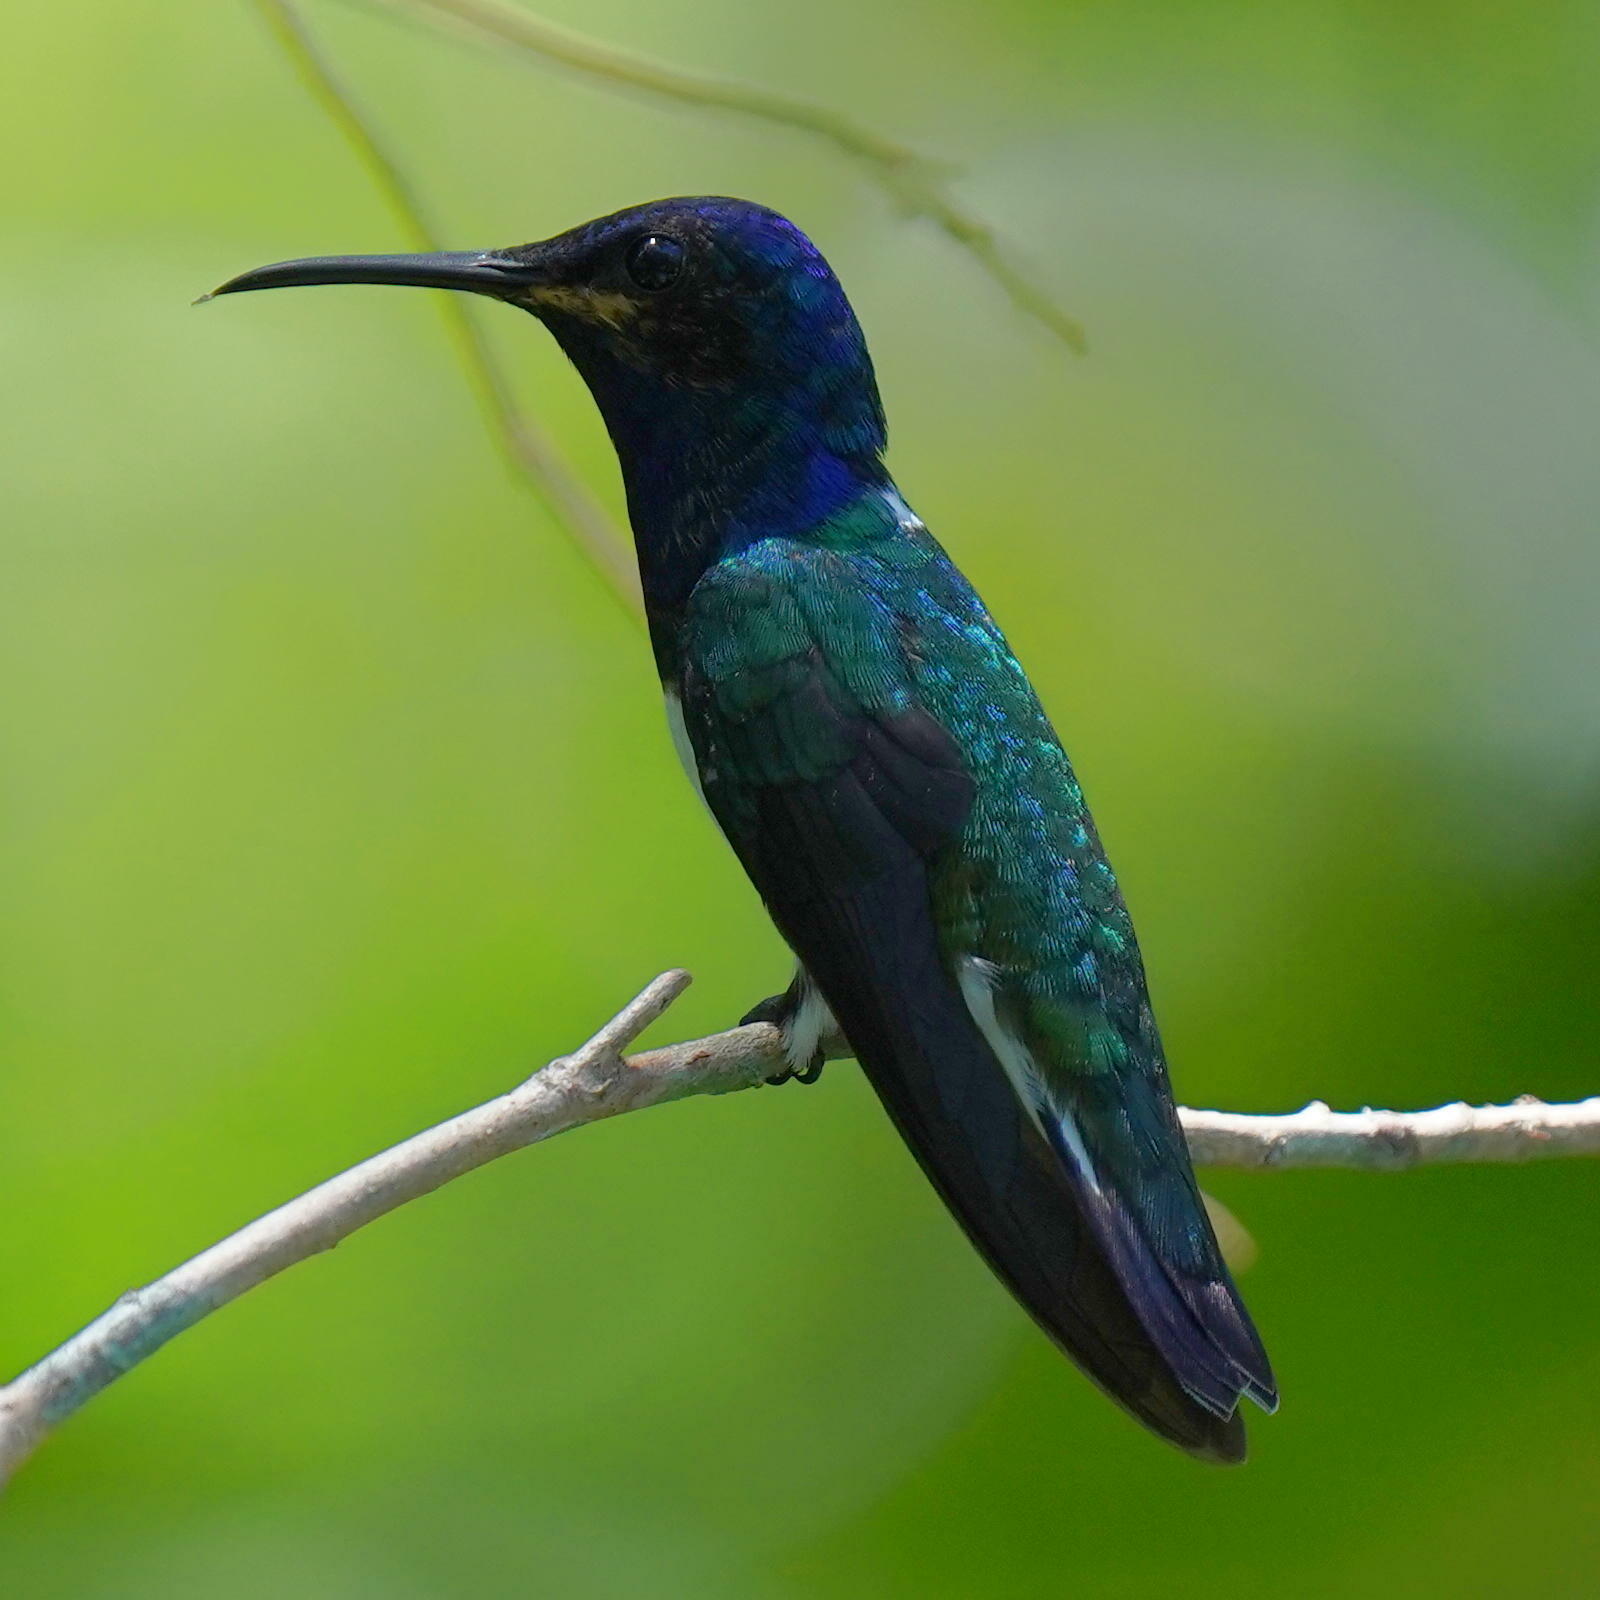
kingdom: Animalia
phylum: Chordata
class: Aves
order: Apodiformes
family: Trochilidae
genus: Florisuga
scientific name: Florisuga mellivora
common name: White-necked jacobin
